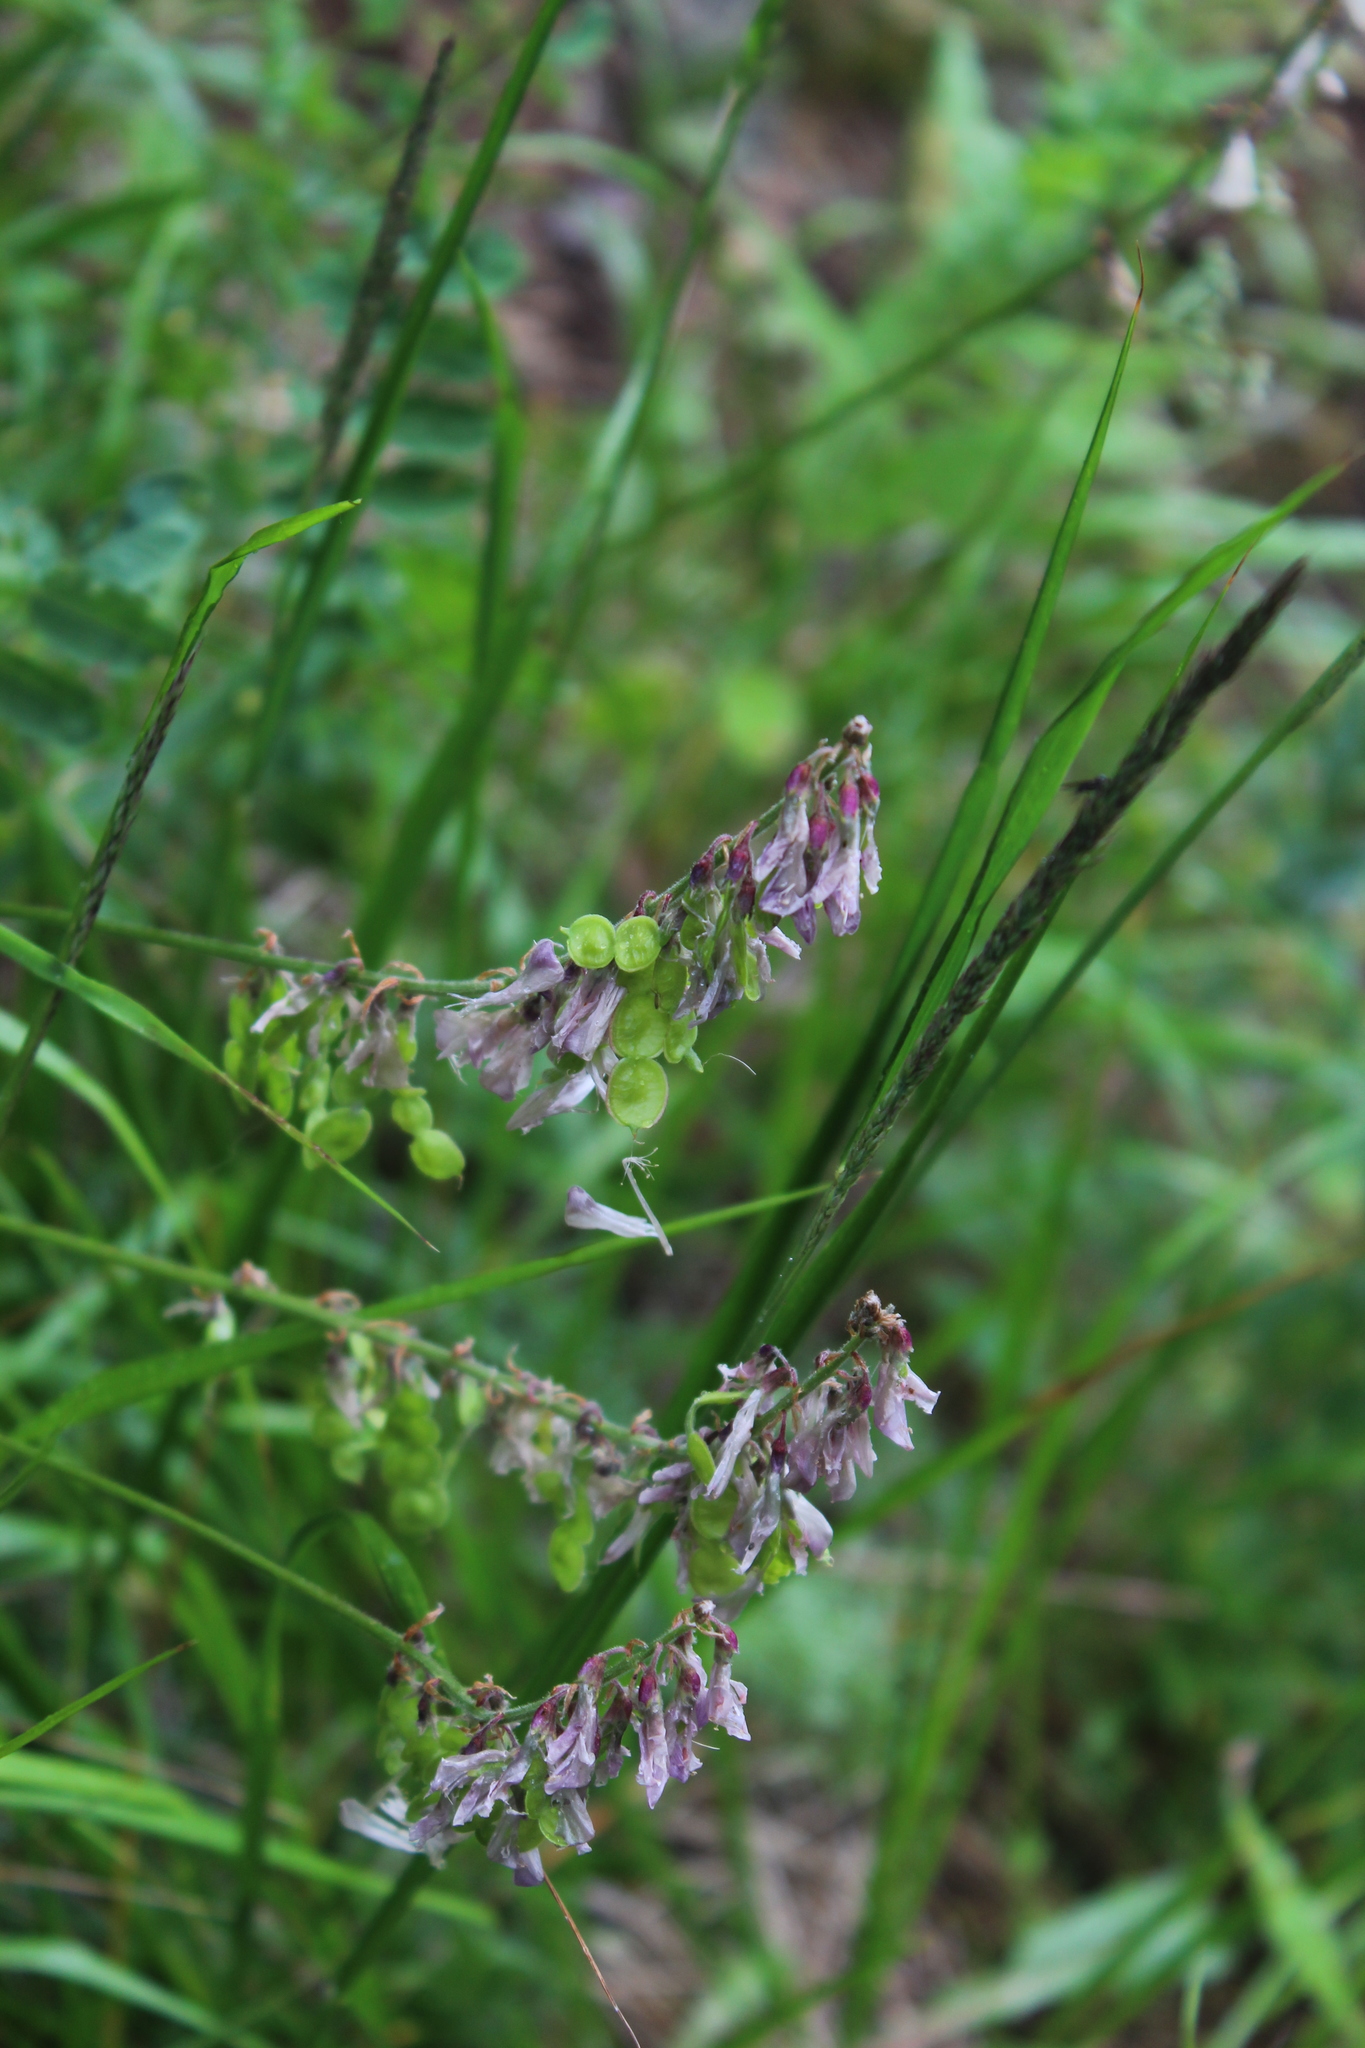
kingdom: Plantae
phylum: Tracheophyta
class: Magnoliopsida
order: Fabales
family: Fabaceae
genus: Hedysarum
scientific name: Hedysarum caucasicum
